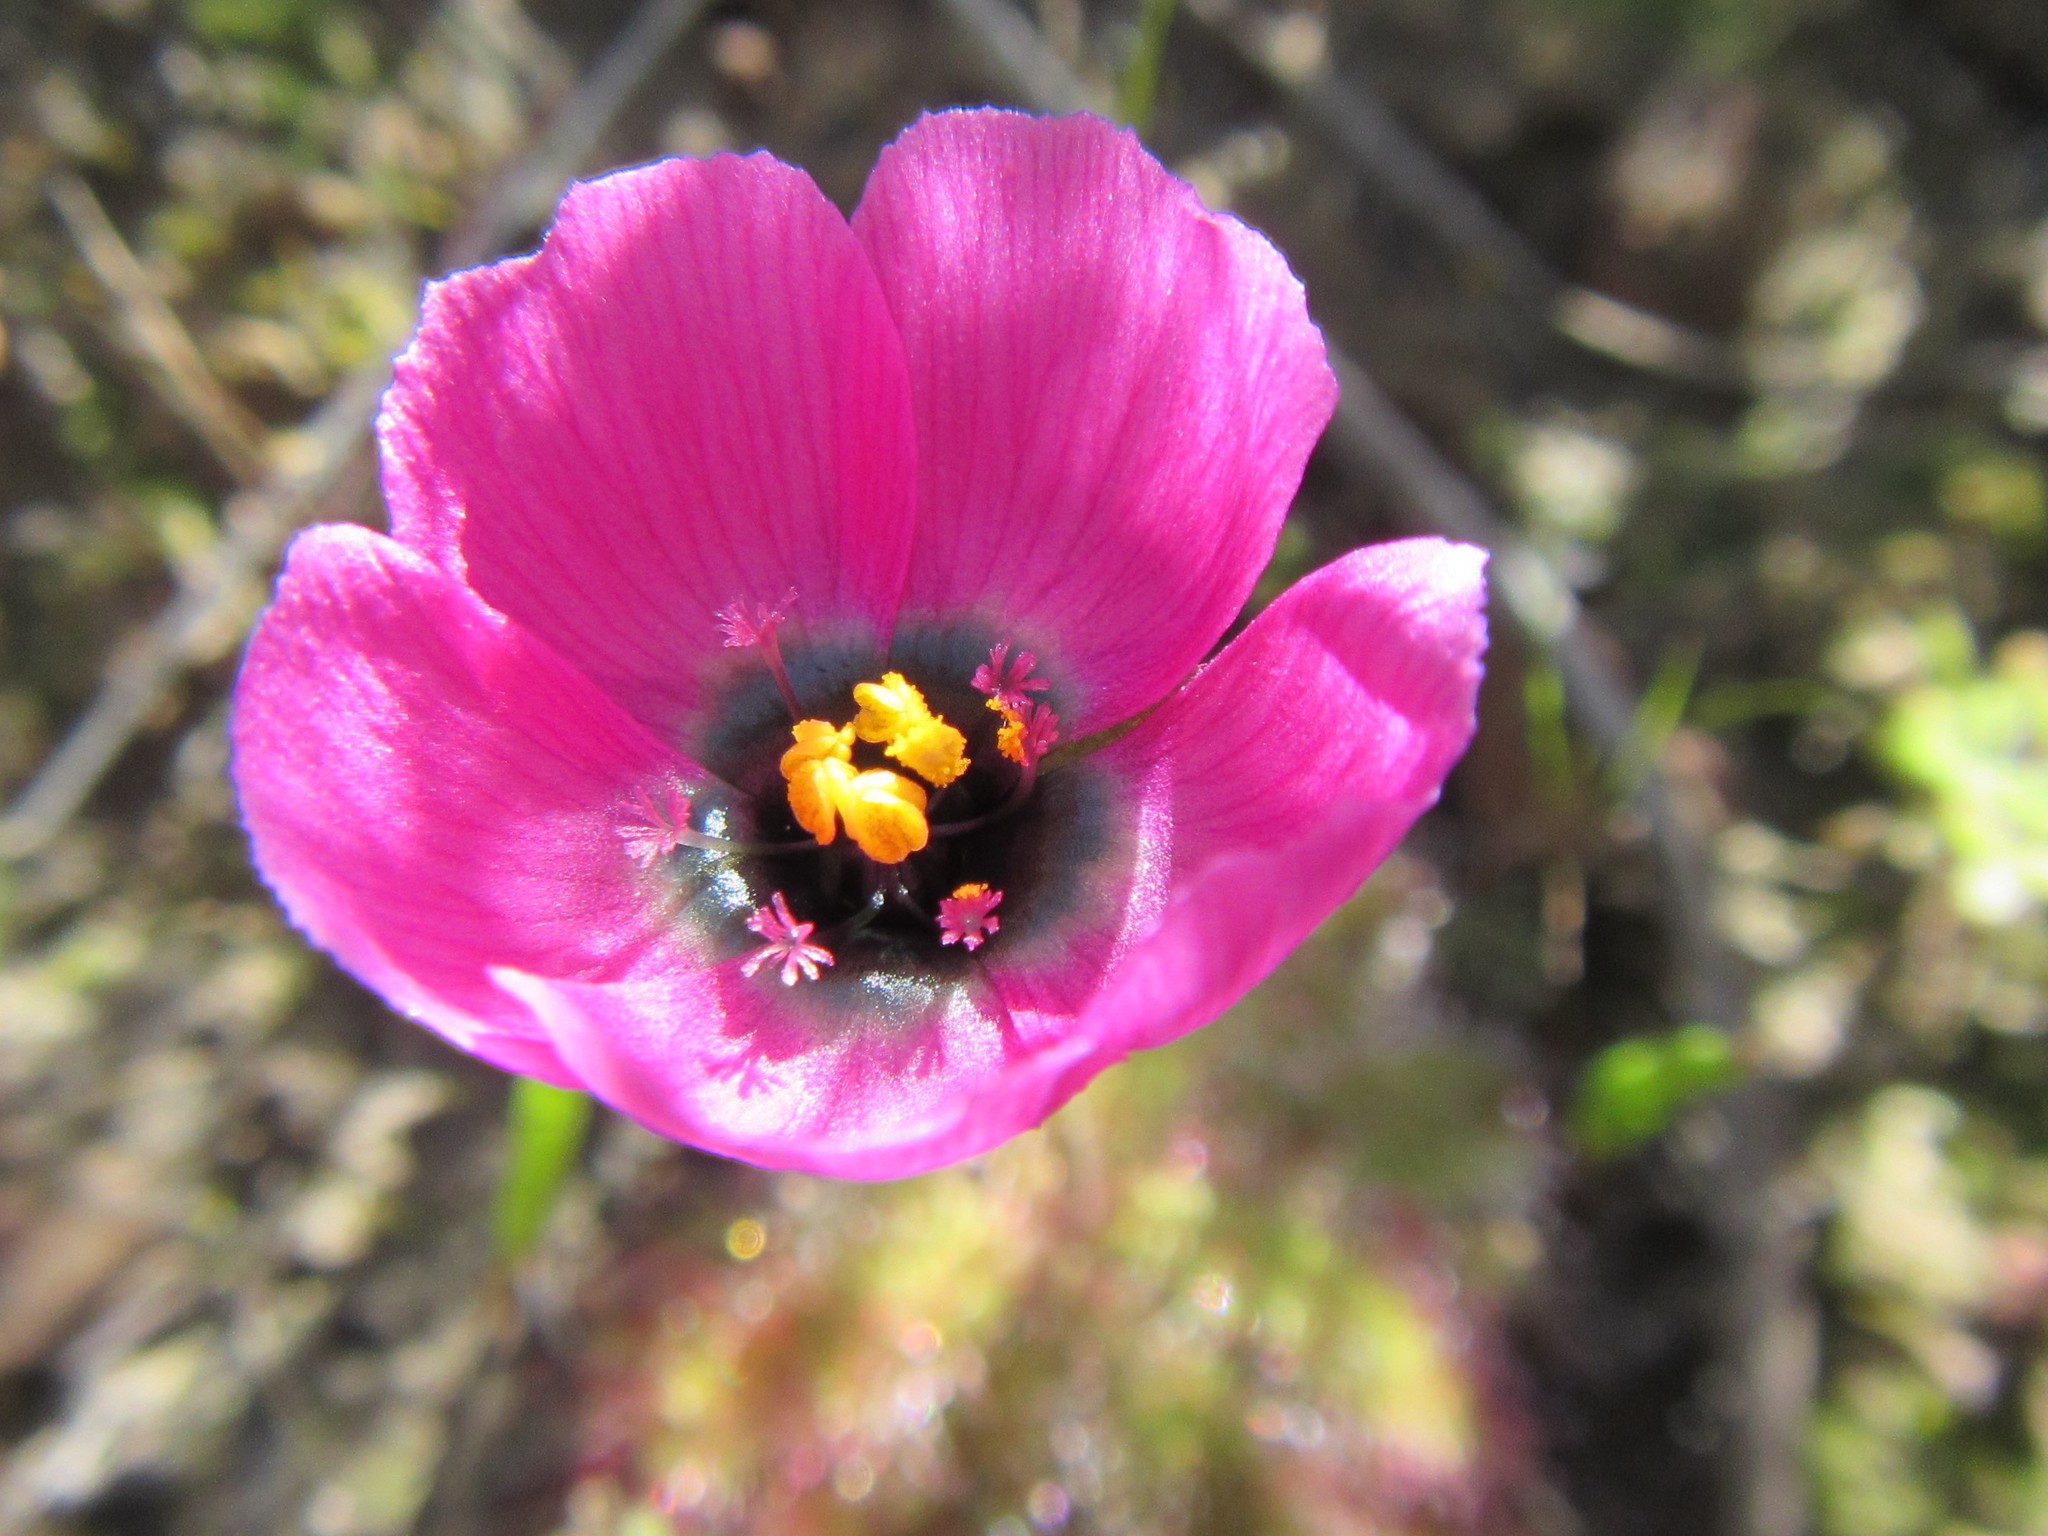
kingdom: Plantae
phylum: Tracheophyta
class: Magnoliopsida
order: Caryophyllales
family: Droseraceae
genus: Drosera
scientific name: Drosera cistiflora
